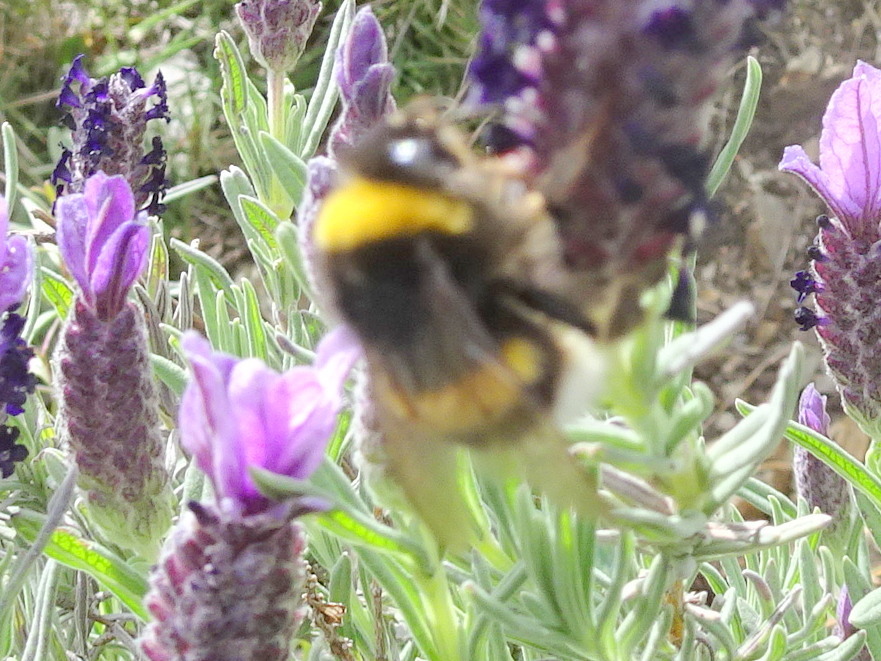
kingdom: Animalia
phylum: Arthropoda
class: Insecta
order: Hymenoptera
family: Apidae
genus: Bombus
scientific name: Bombus
